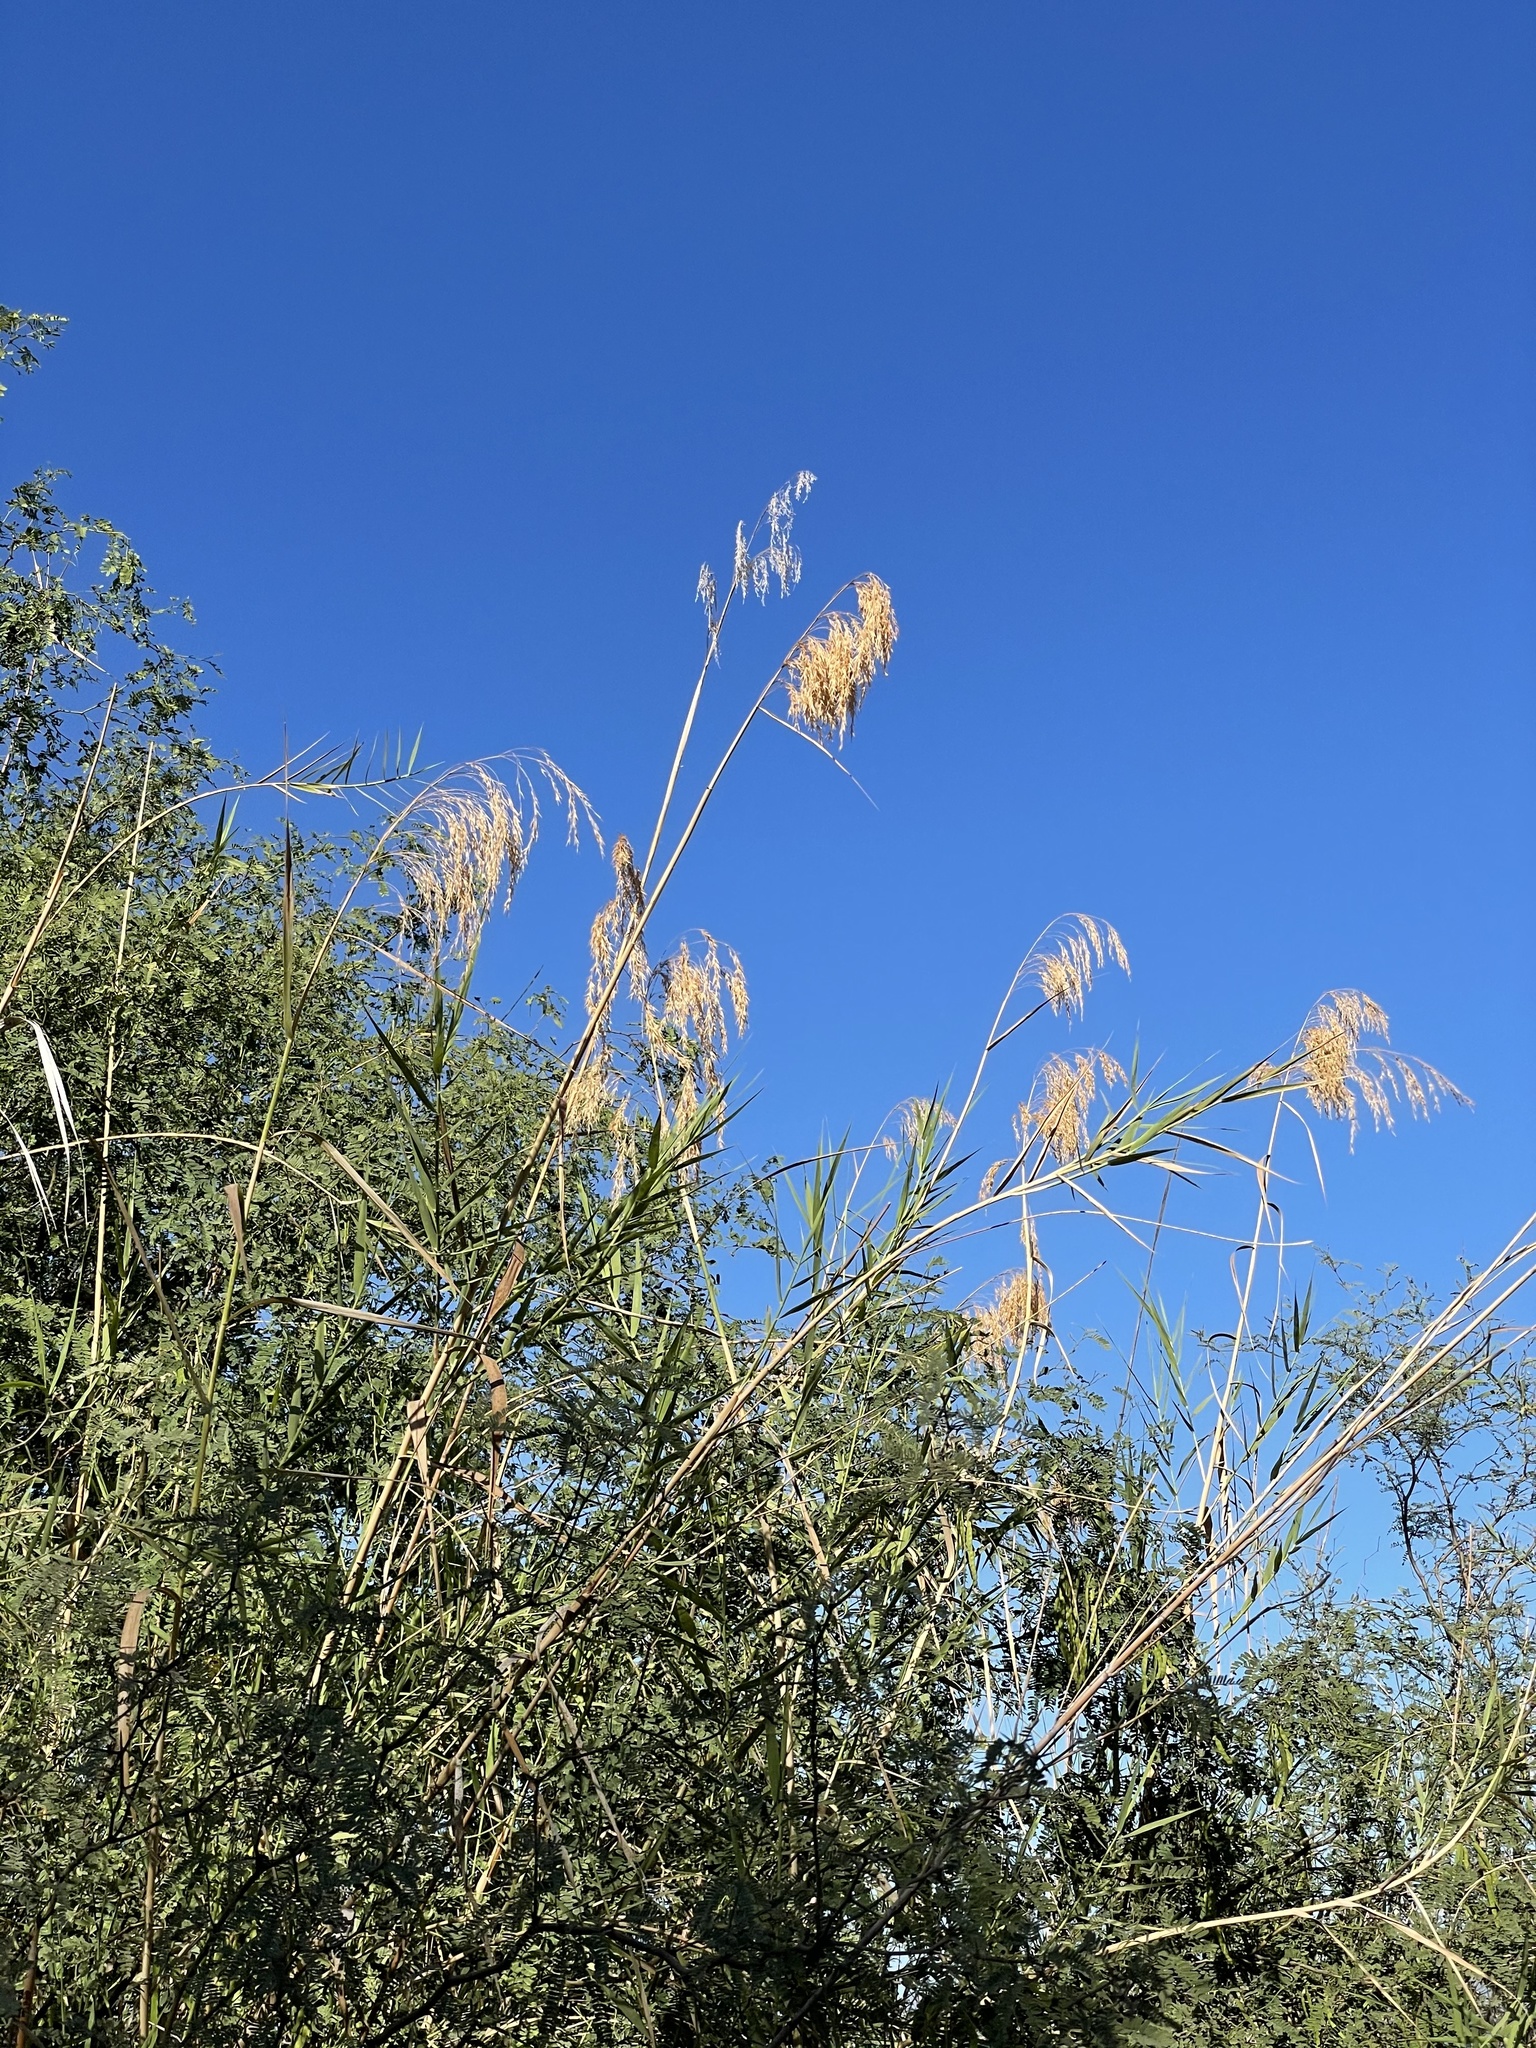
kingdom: Plantae
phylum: Tracheophyta
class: Liliopsida
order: Poales
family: Poaceae
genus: Phragmites
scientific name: Phragmites australis
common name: Common reed
